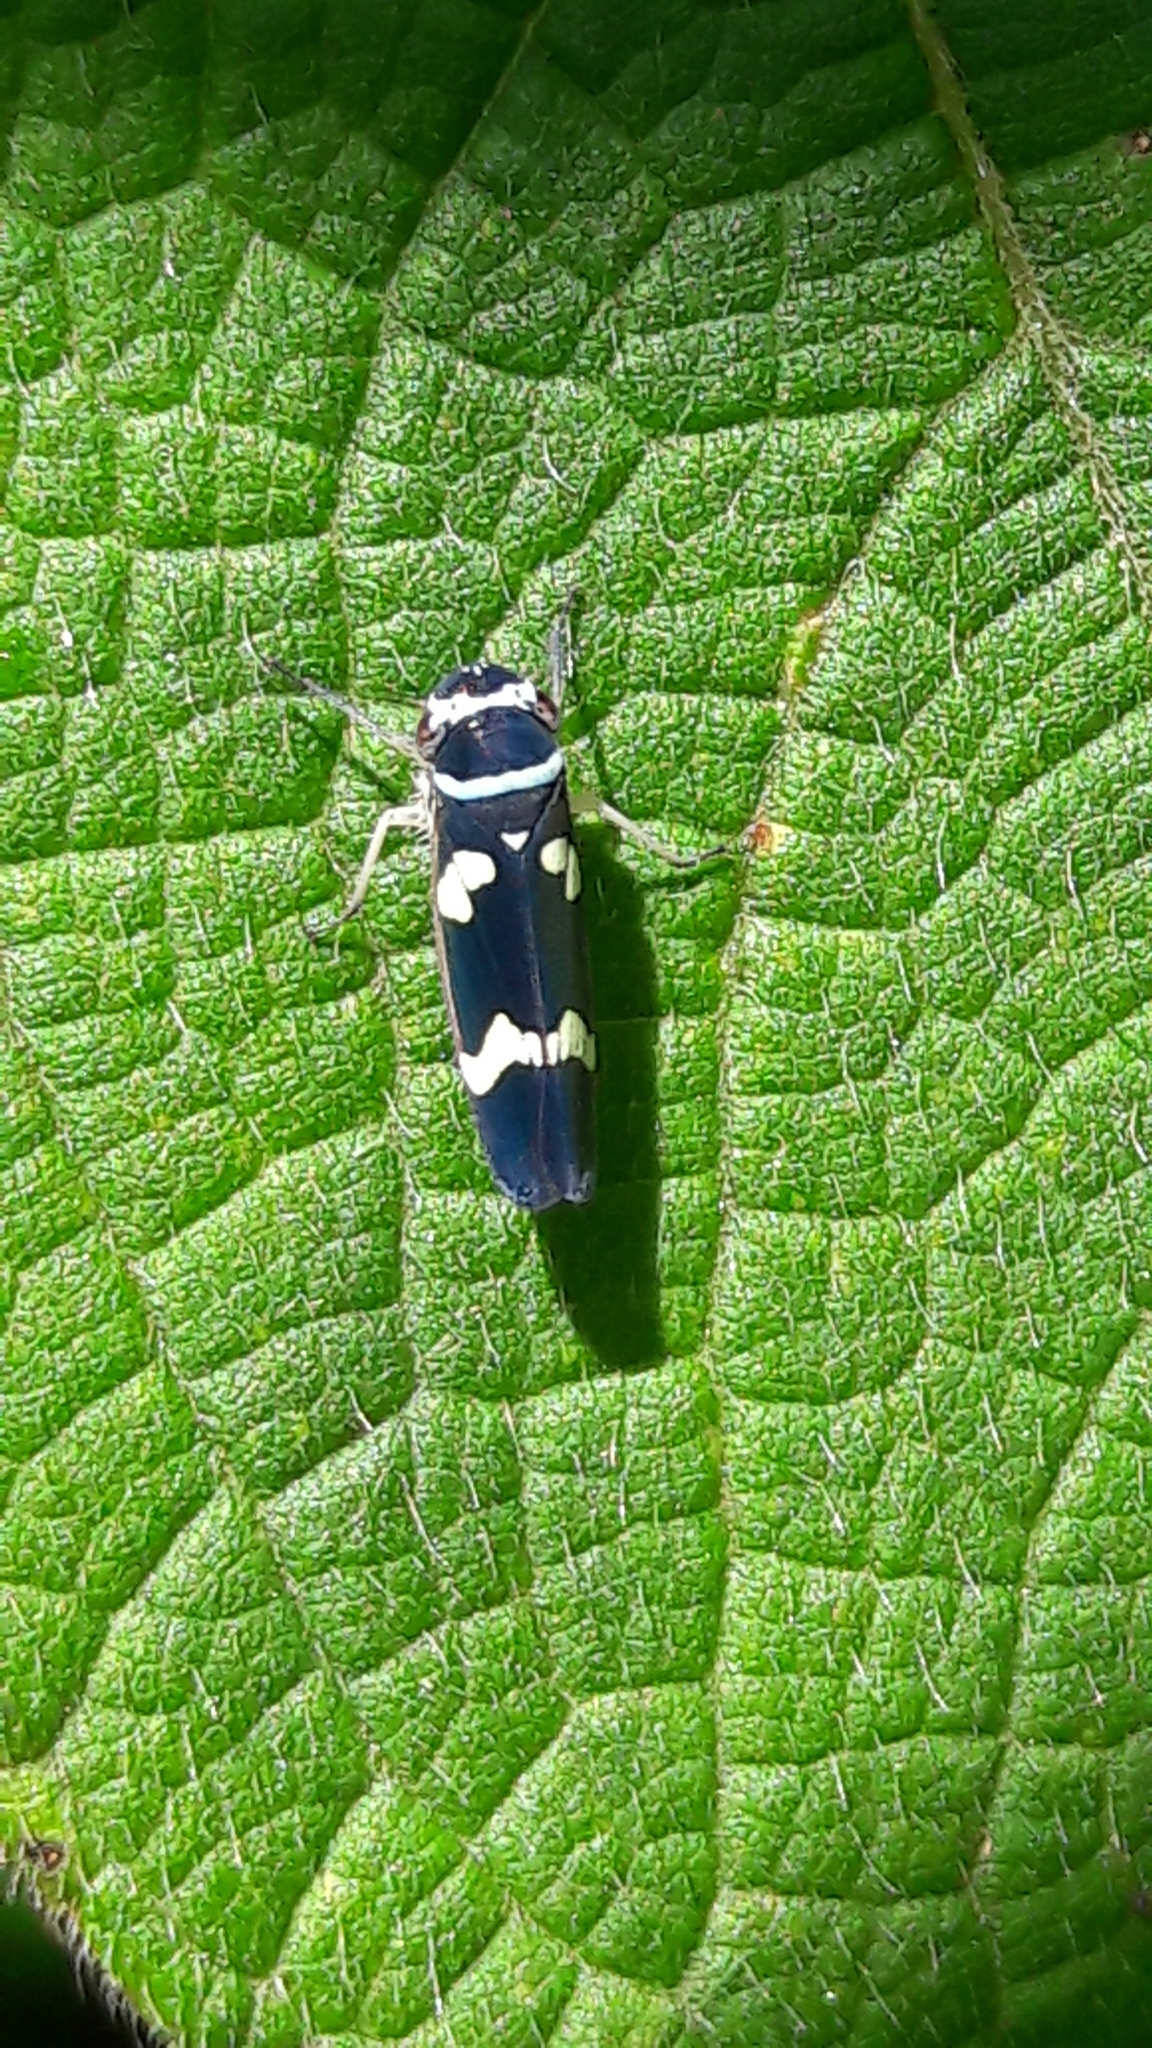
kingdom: Animalia
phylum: Arthropoda
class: Insecta
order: Hemiptera
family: Cicadellidae
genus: Macugonalia
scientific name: Macugonalia leucomelas
